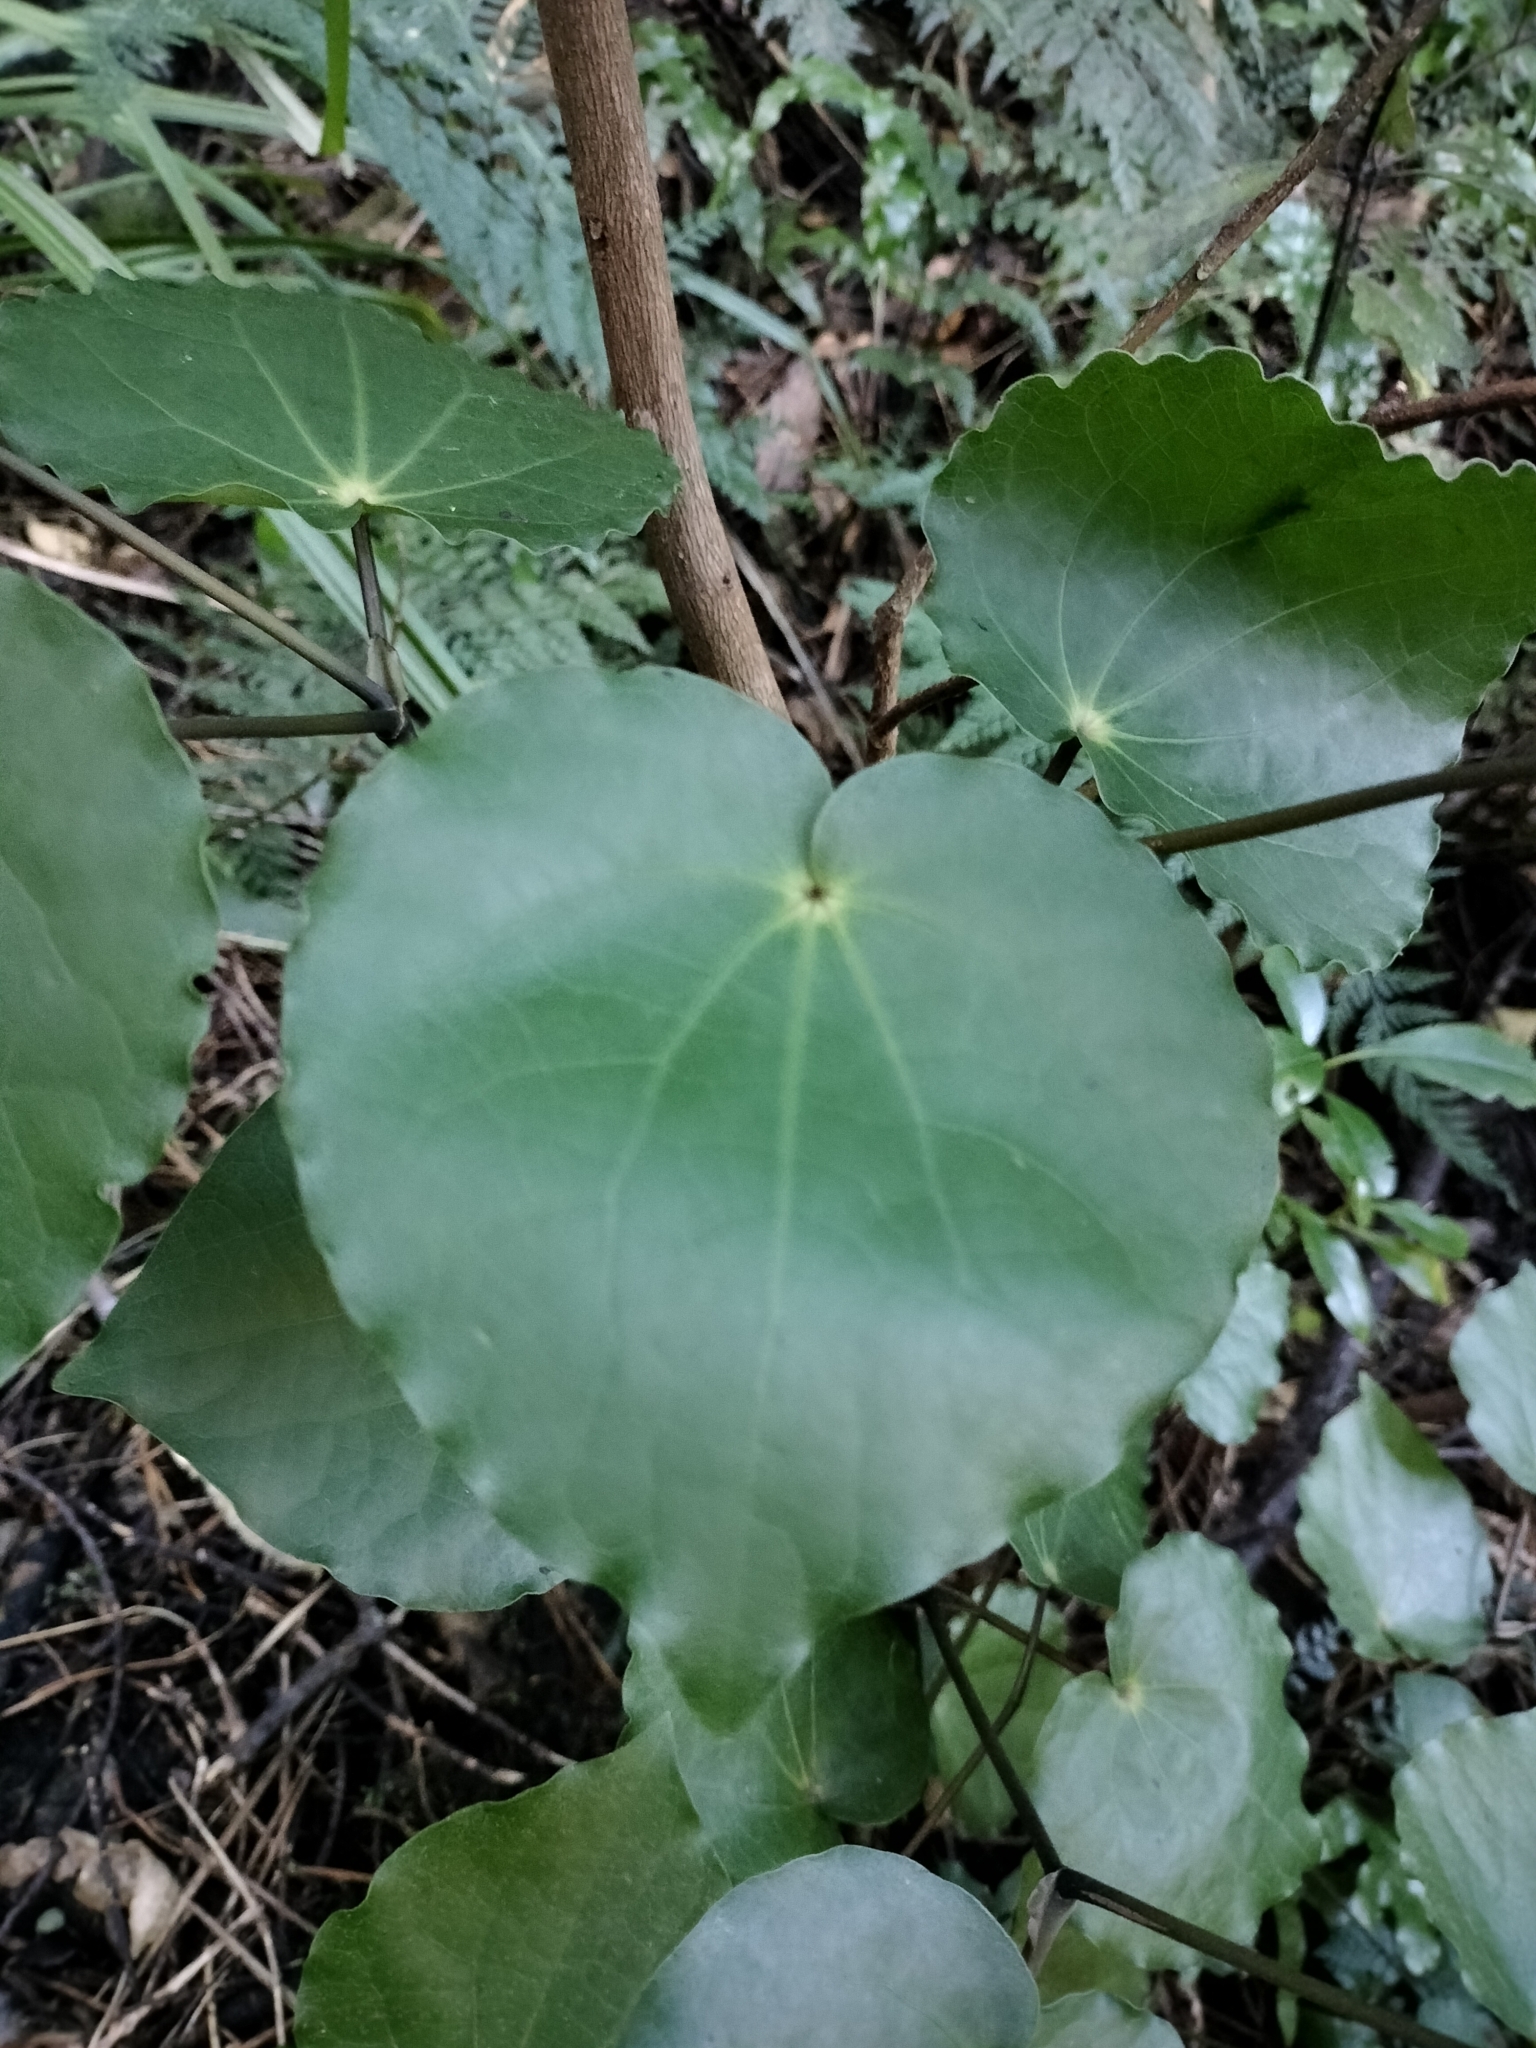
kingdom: Plantae
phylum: Tracheophyta
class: Magnoliopsida
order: Piperales
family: Piperaceae
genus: Macropiper
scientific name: Macropiper excelsum
